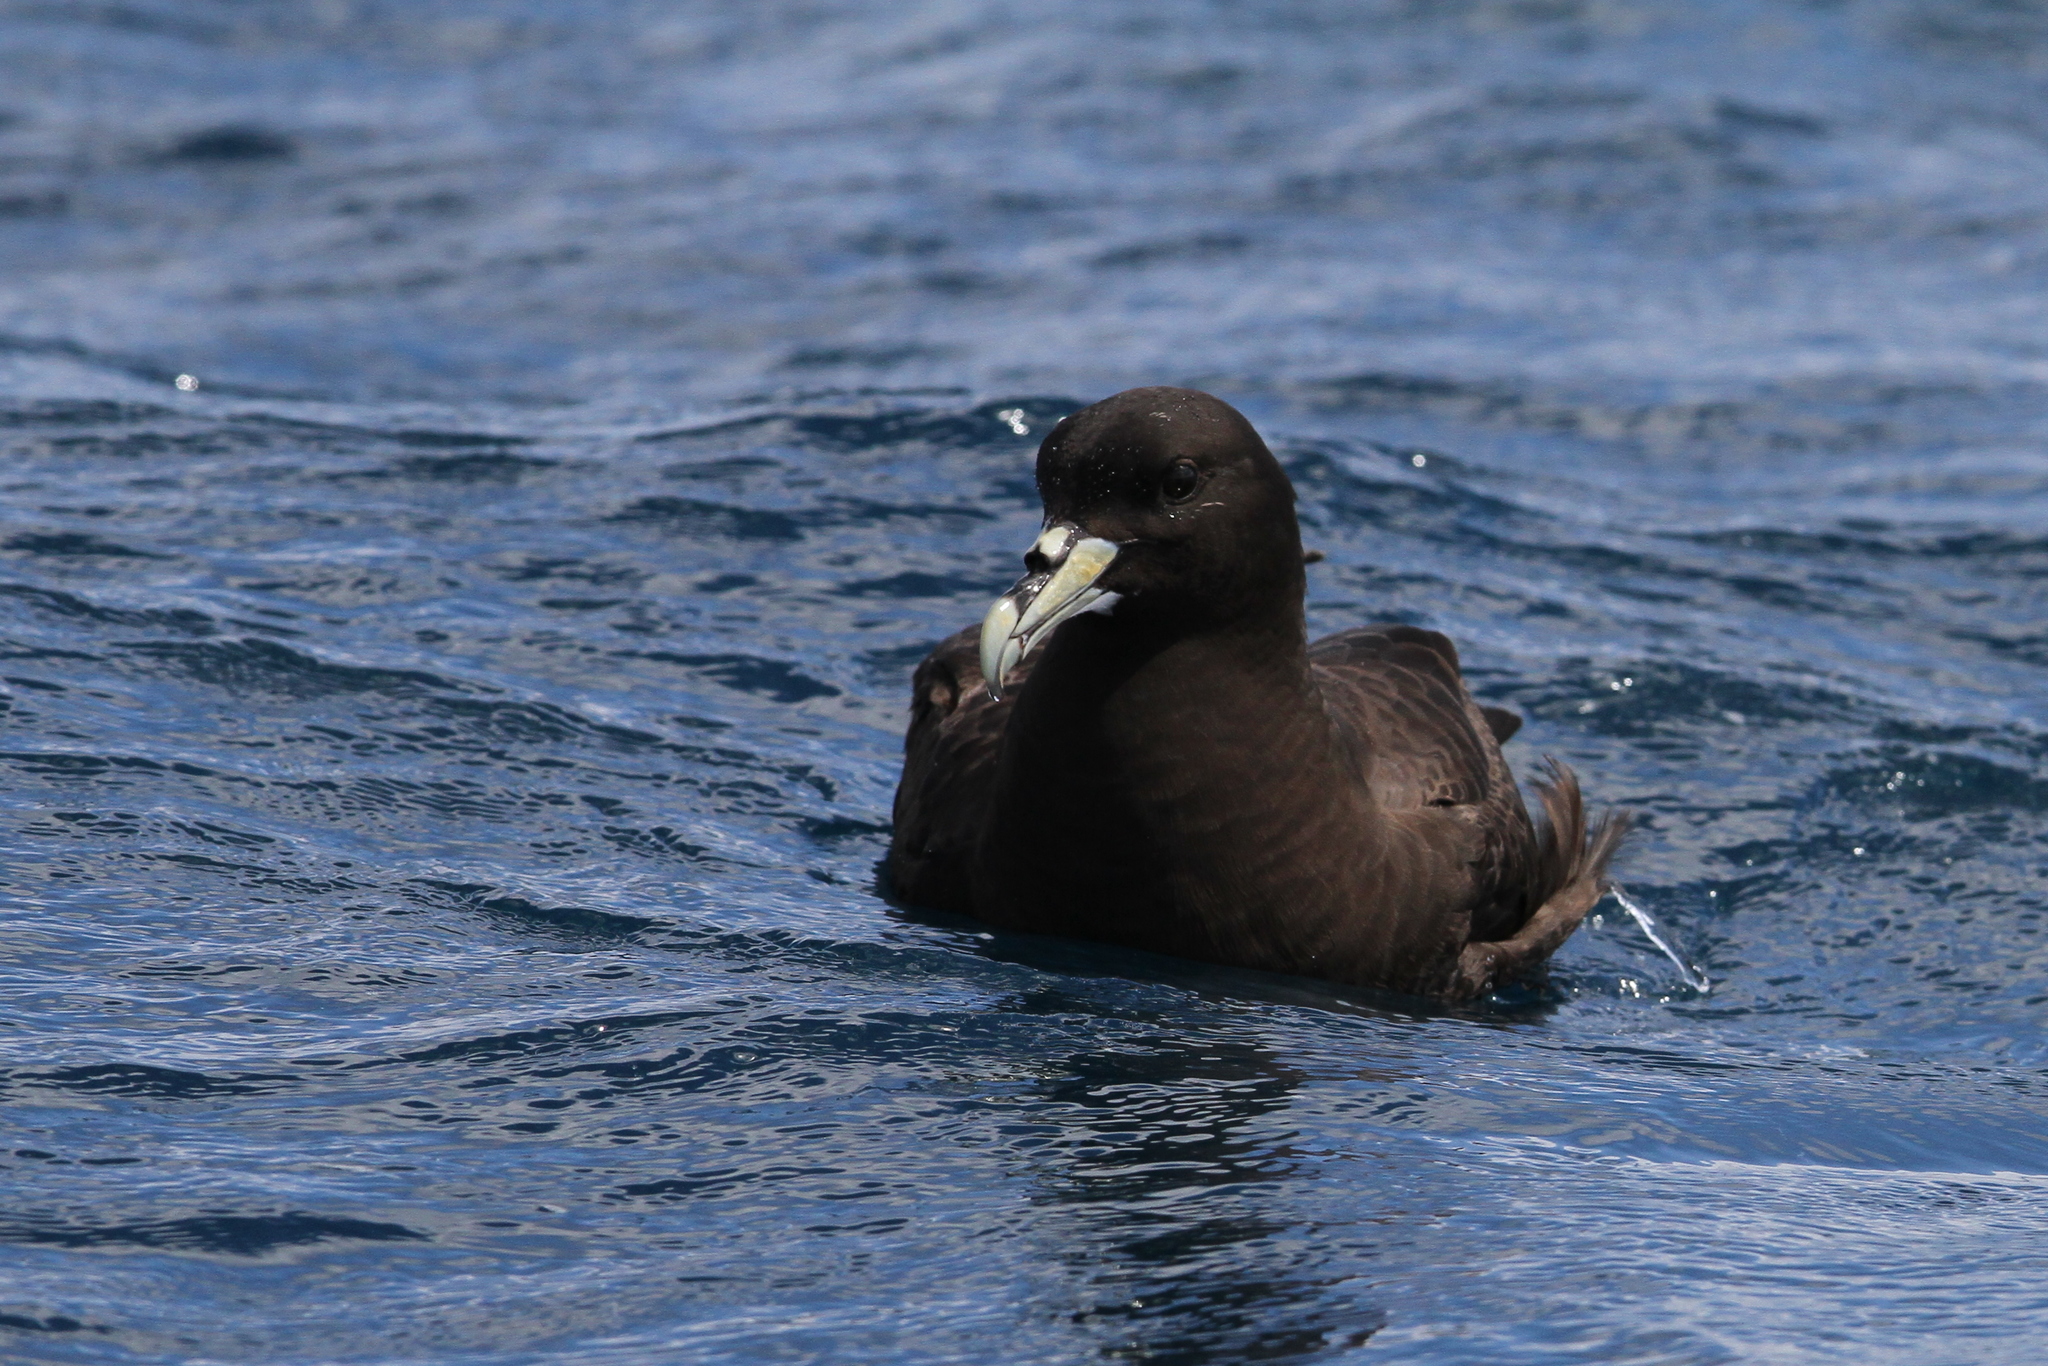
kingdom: Animalia
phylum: Chordata
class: Aves
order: Procellariiformes
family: Procellariidae
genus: Procellaria
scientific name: Procellaria aequinoctialis
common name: White-chinned petrel
